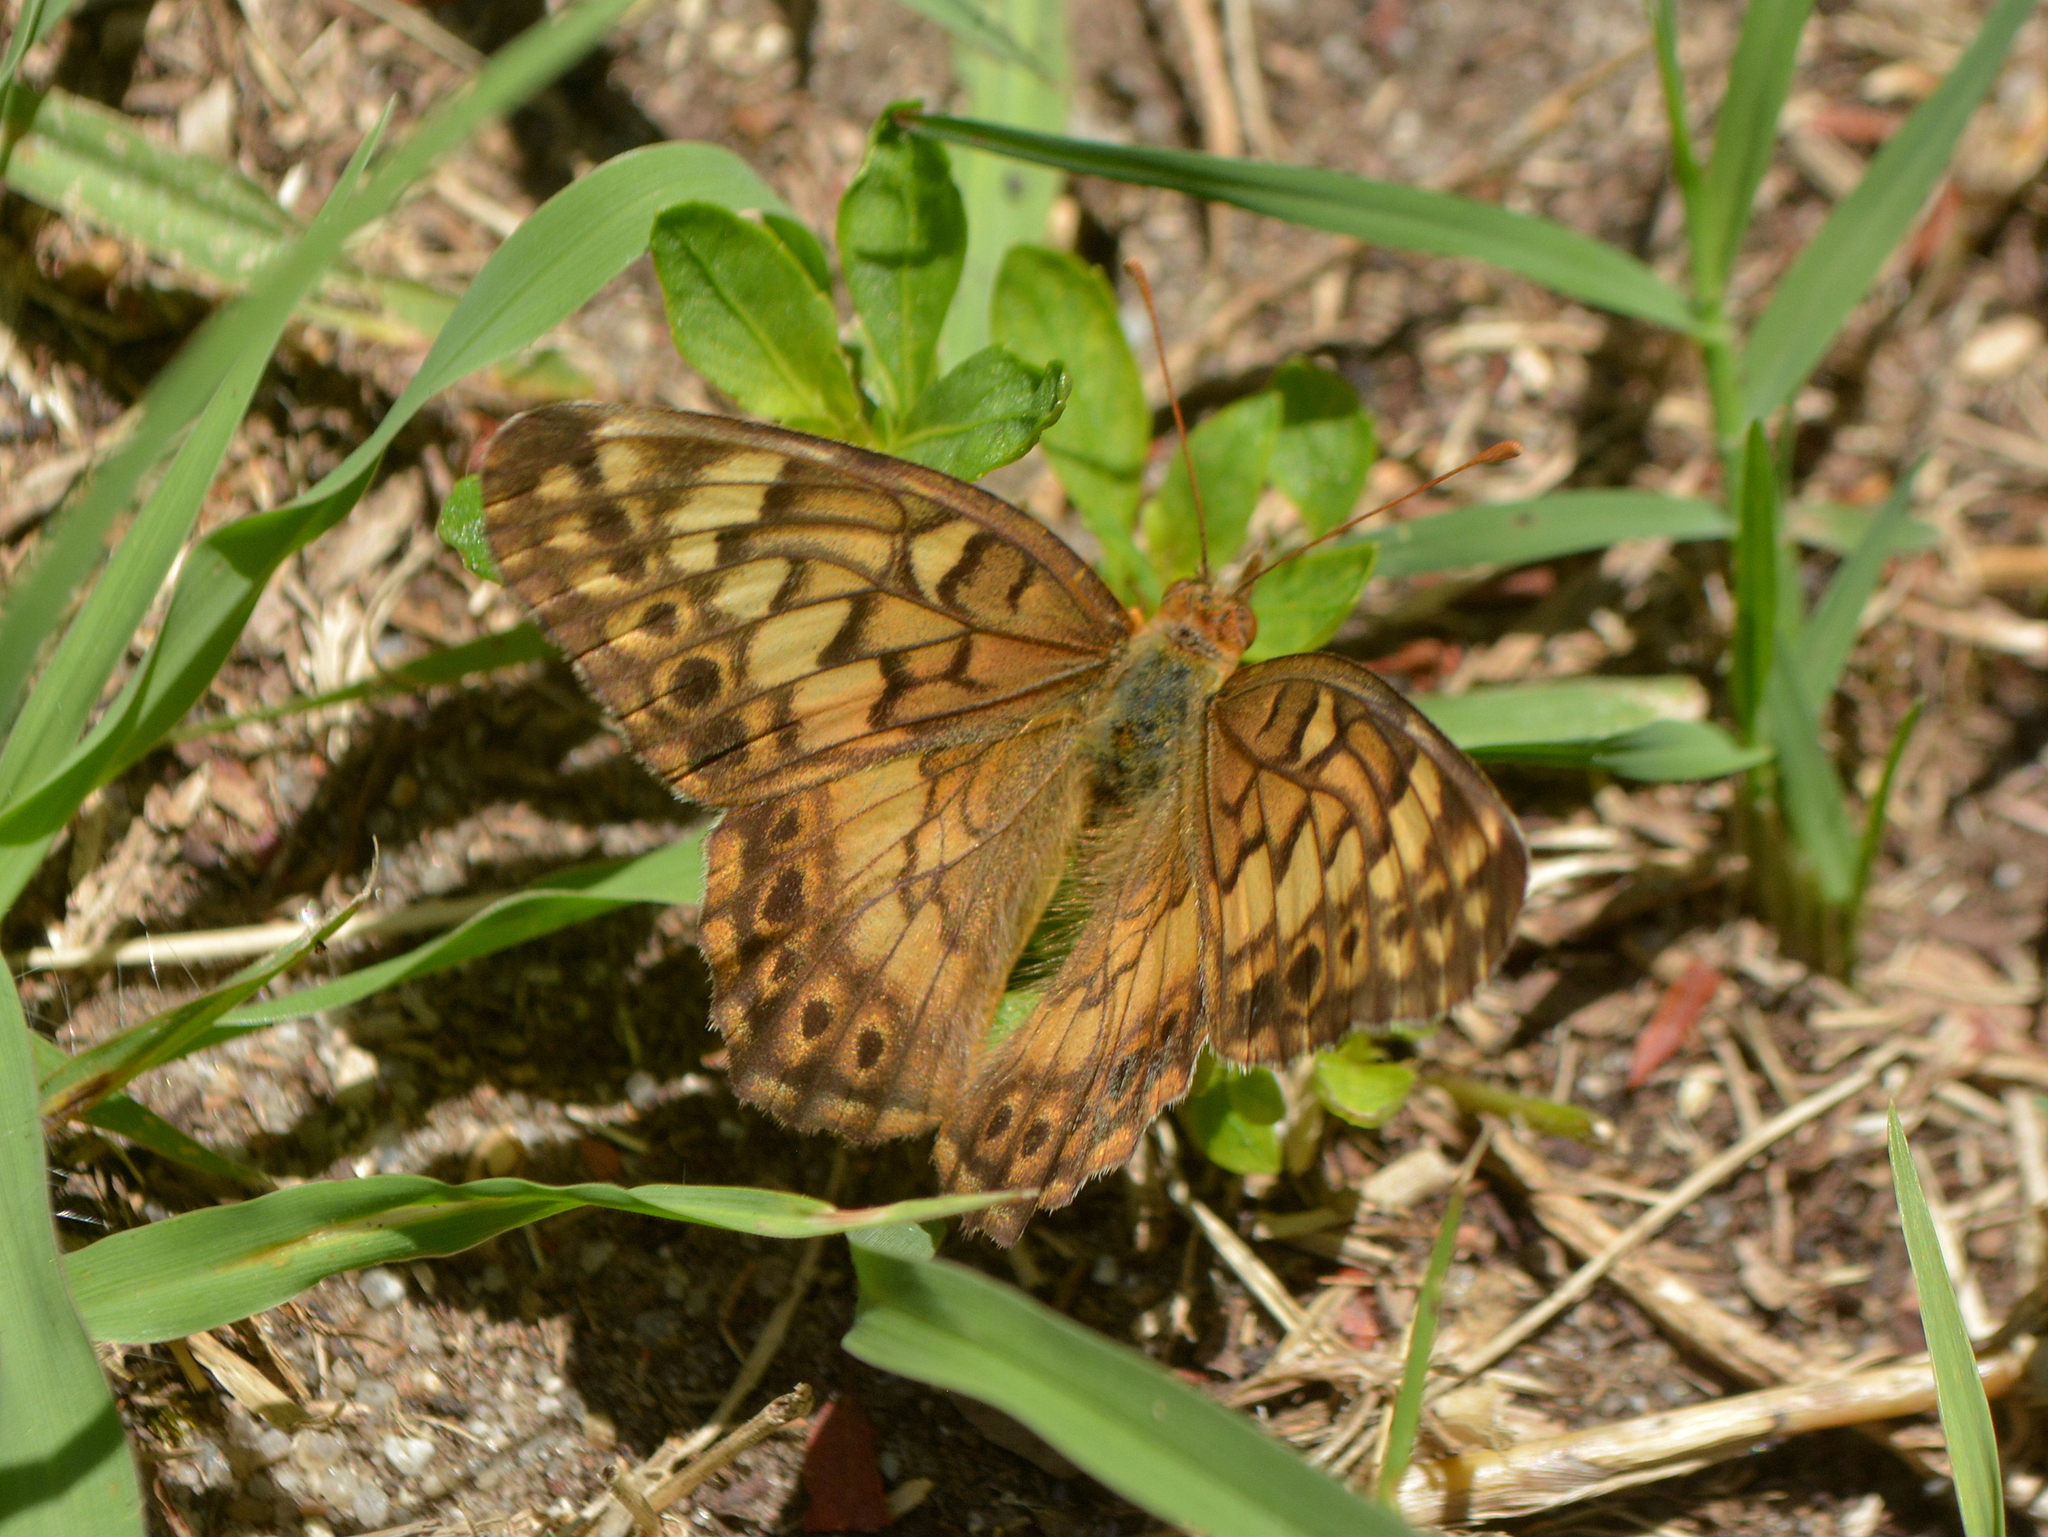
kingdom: Animalia
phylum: Arthropoda
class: Insecta
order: Lepidoptera
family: Nymphalidae
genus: Euptoieta
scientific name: Euptoieta hortensia
